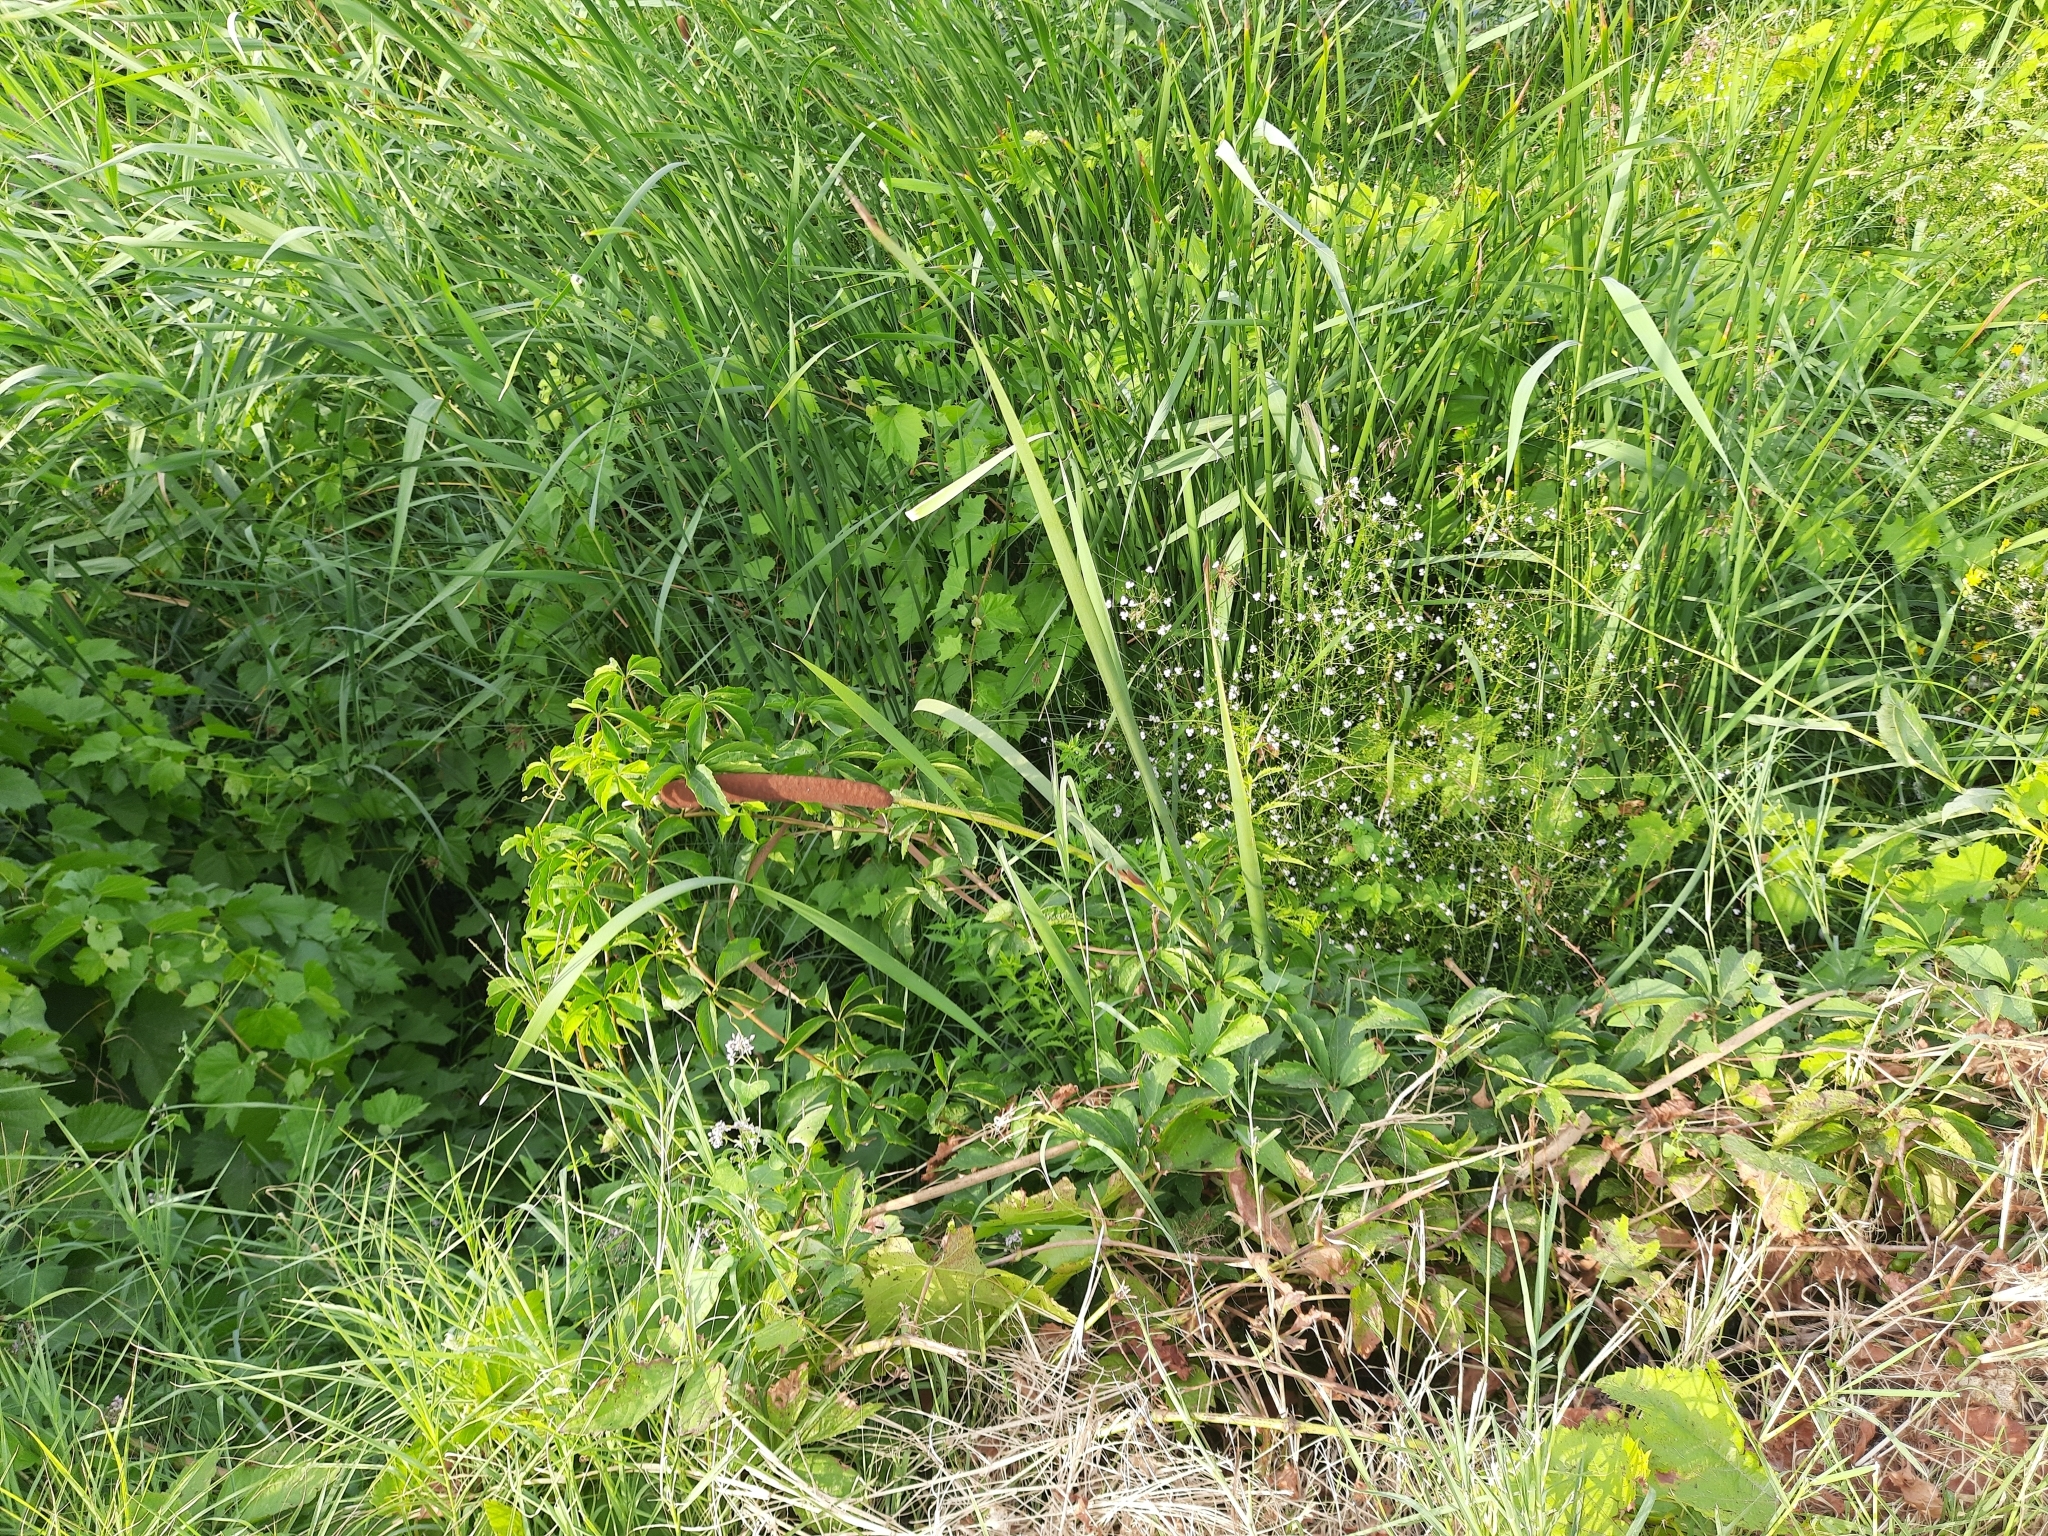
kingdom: Plantae
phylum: Tracheophyta
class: Liliopsida
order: Poales
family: Typhaceae
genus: Typha
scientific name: Typha latifolia
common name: Broadleaf cattail
